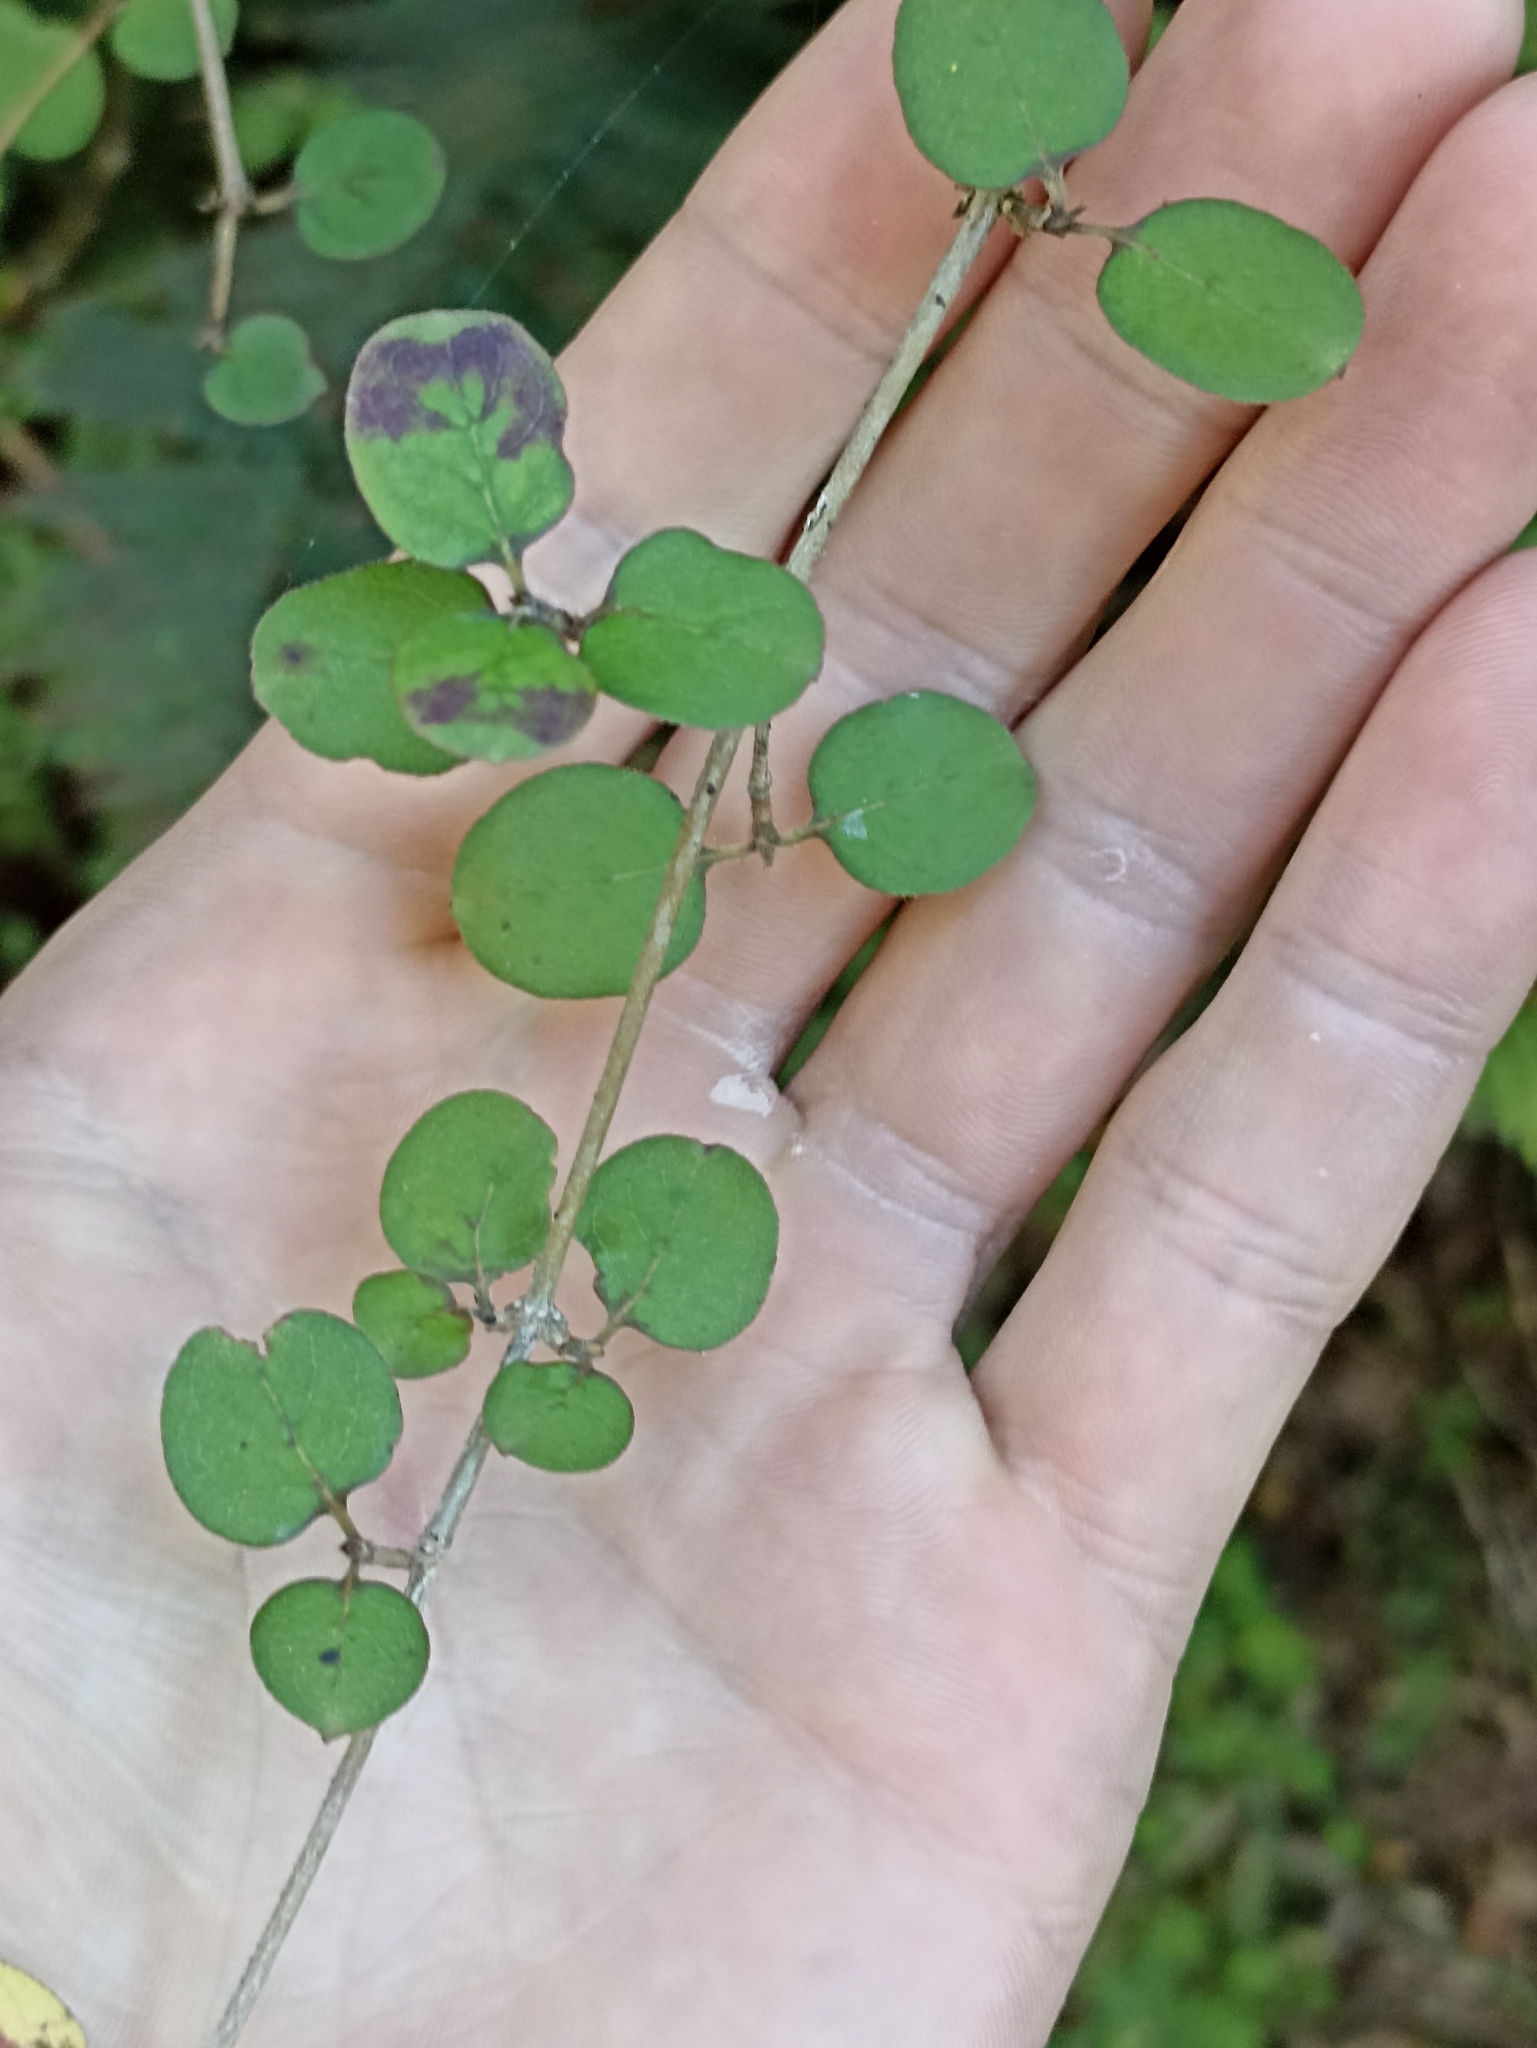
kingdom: Plantae
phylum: Tracheophyta
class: Magnoliopsida
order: Gentianales
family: Rubiaceae
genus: Coprosma
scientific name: Coprosma rotundifolia
